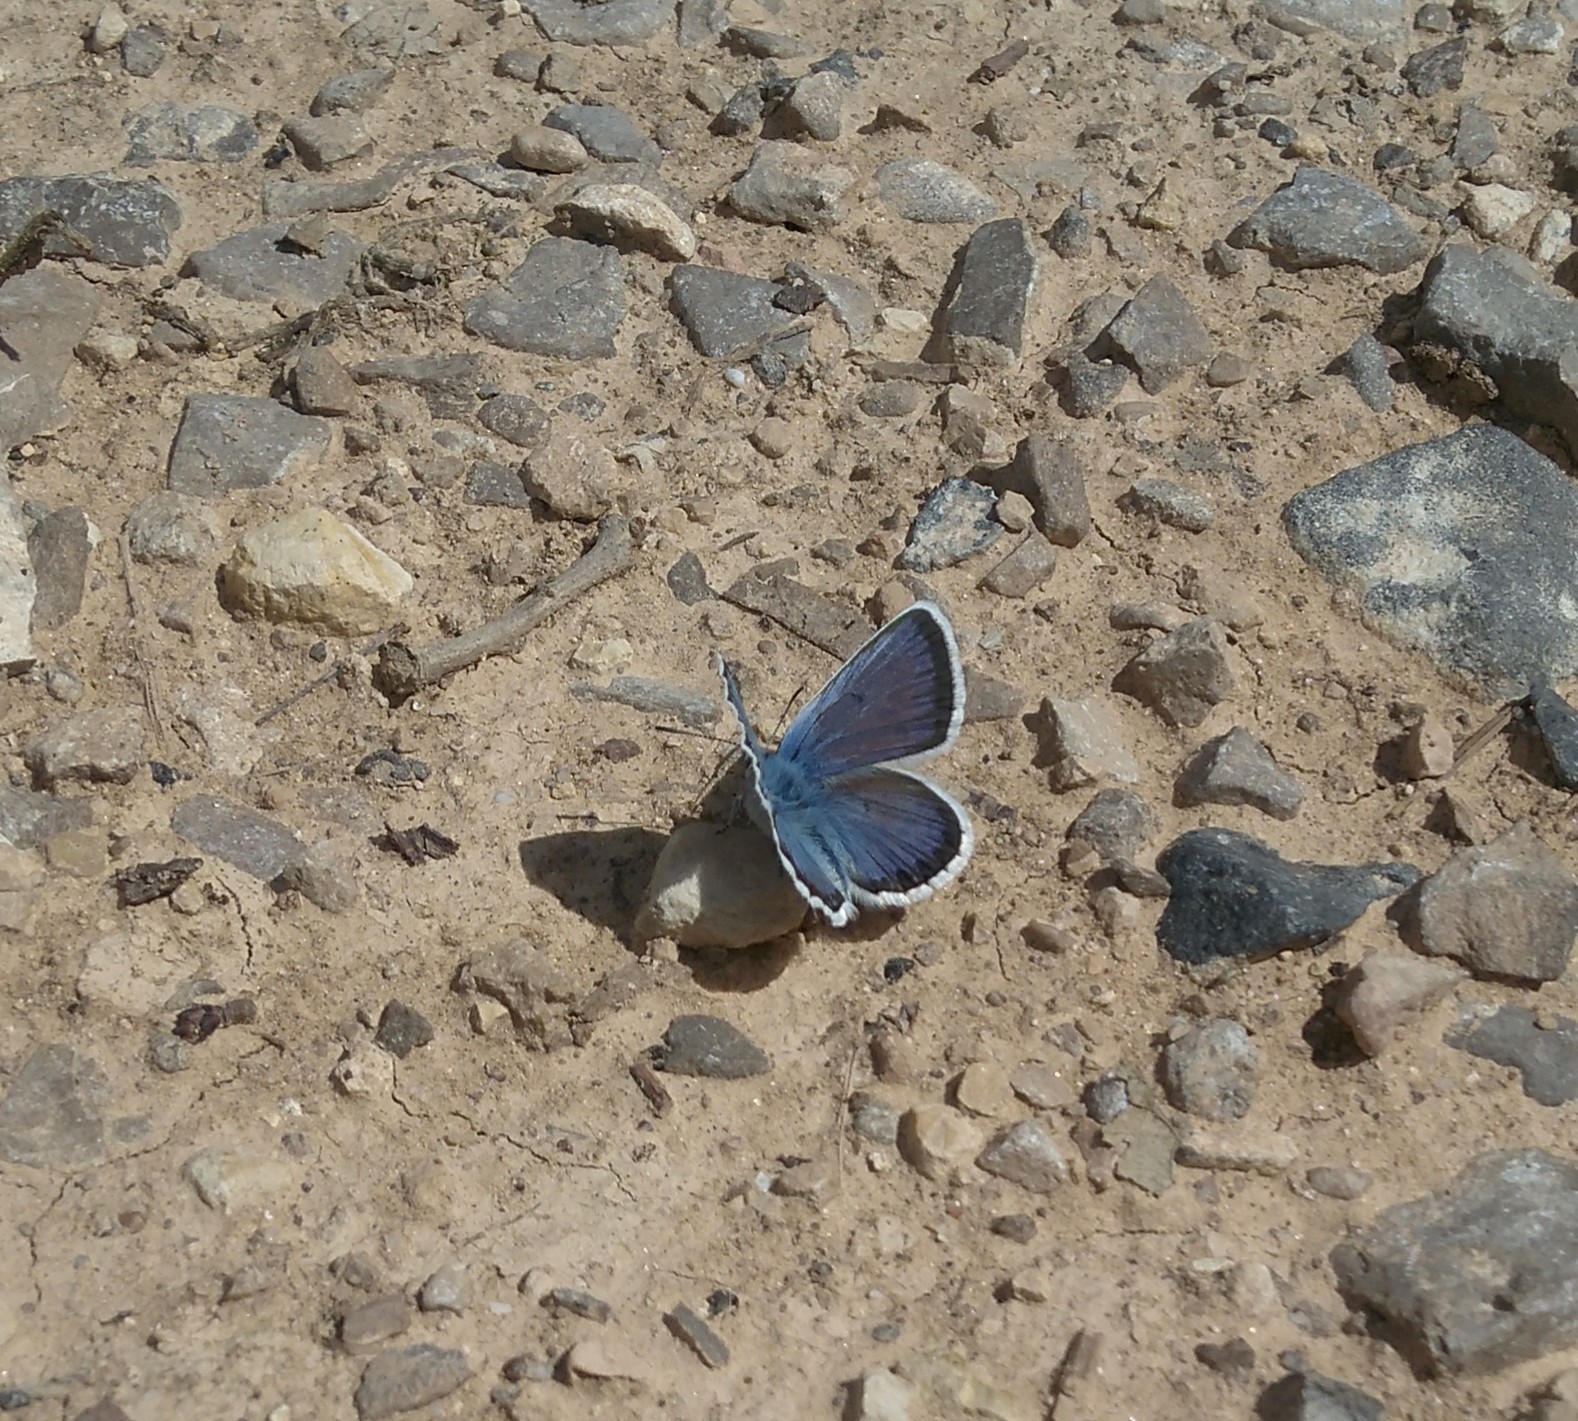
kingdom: Animalia
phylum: Arthropoda
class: Insecta
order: Lepidoptera
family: Lycaenidae
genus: Plebejus
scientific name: Plebejus argus
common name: Silver-studded blue
